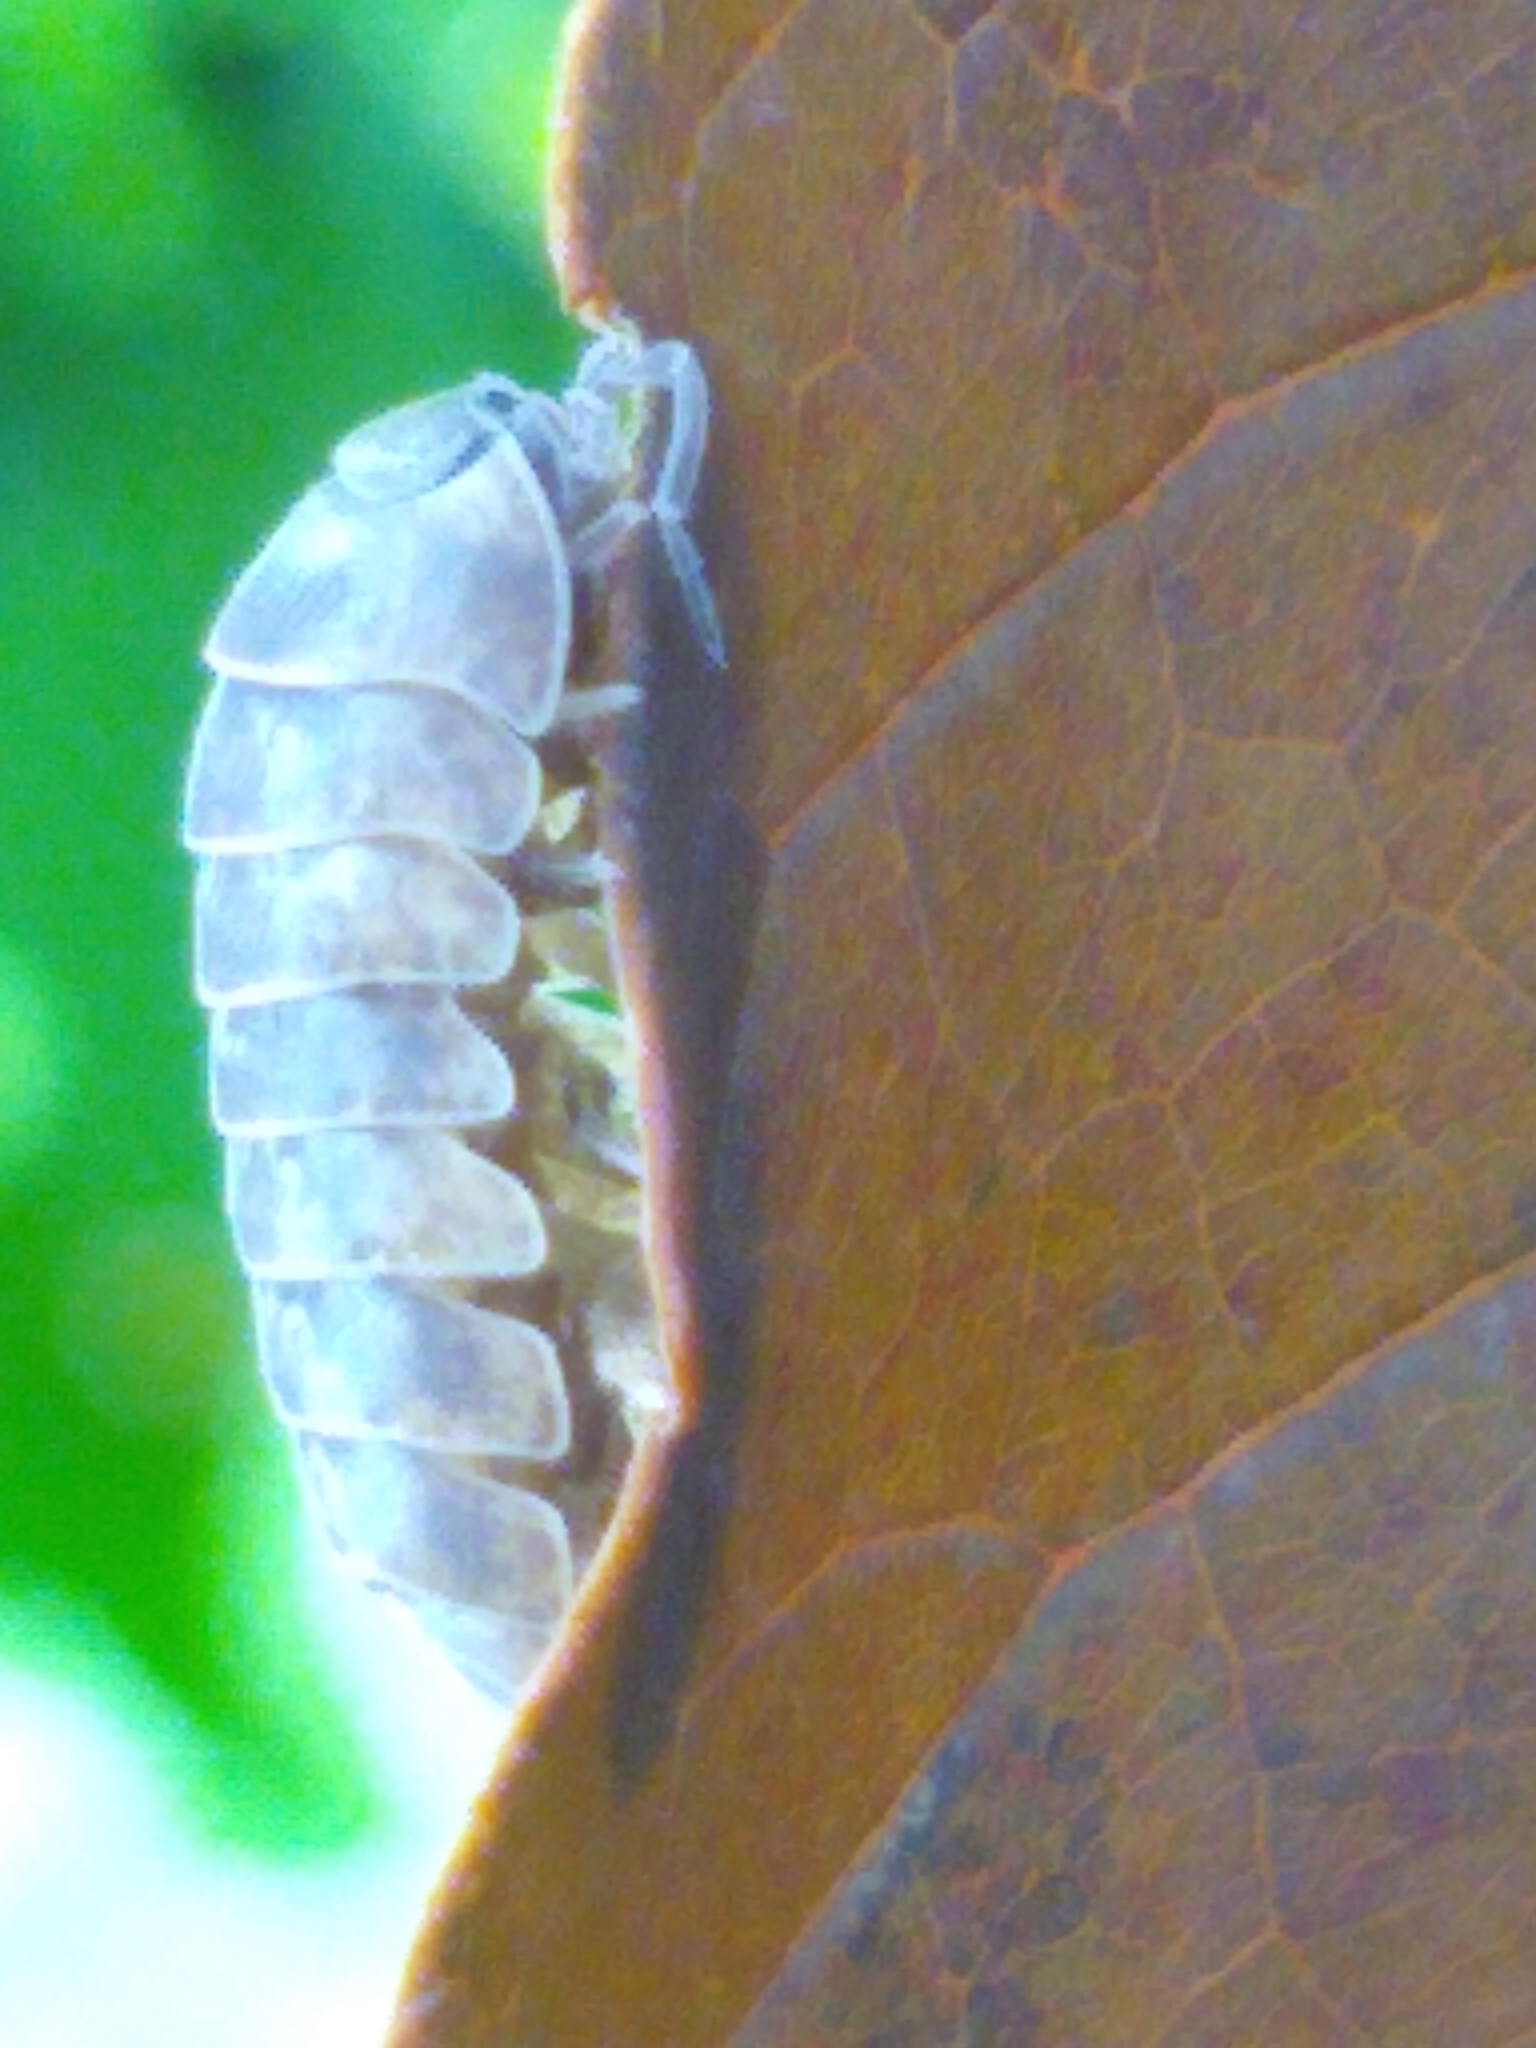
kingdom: Animalia
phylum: Arthropoda
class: Malacostraca
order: Isopoda
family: Armadillidiidae
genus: Armadillidium
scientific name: Armadillidium vulgare
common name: Common pill woodlouse
